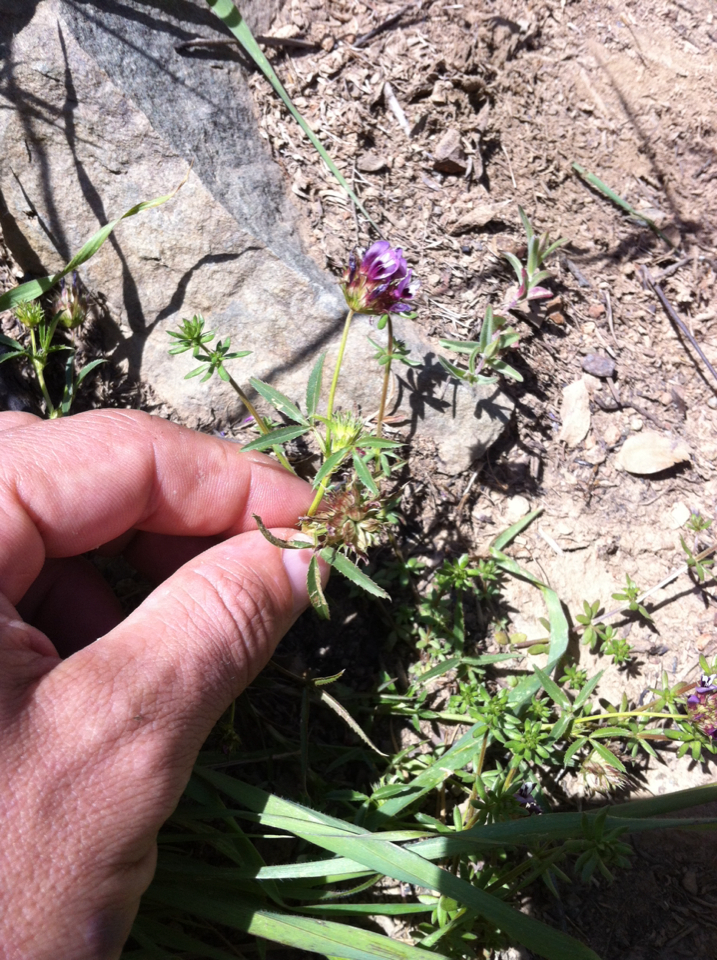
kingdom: Plantae
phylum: Tracheophyta
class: Magnoliopsida
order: Fabales
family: Fabaceae
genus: Trifolium
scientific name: Trifolium willdenovii
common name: Tomcat clover
